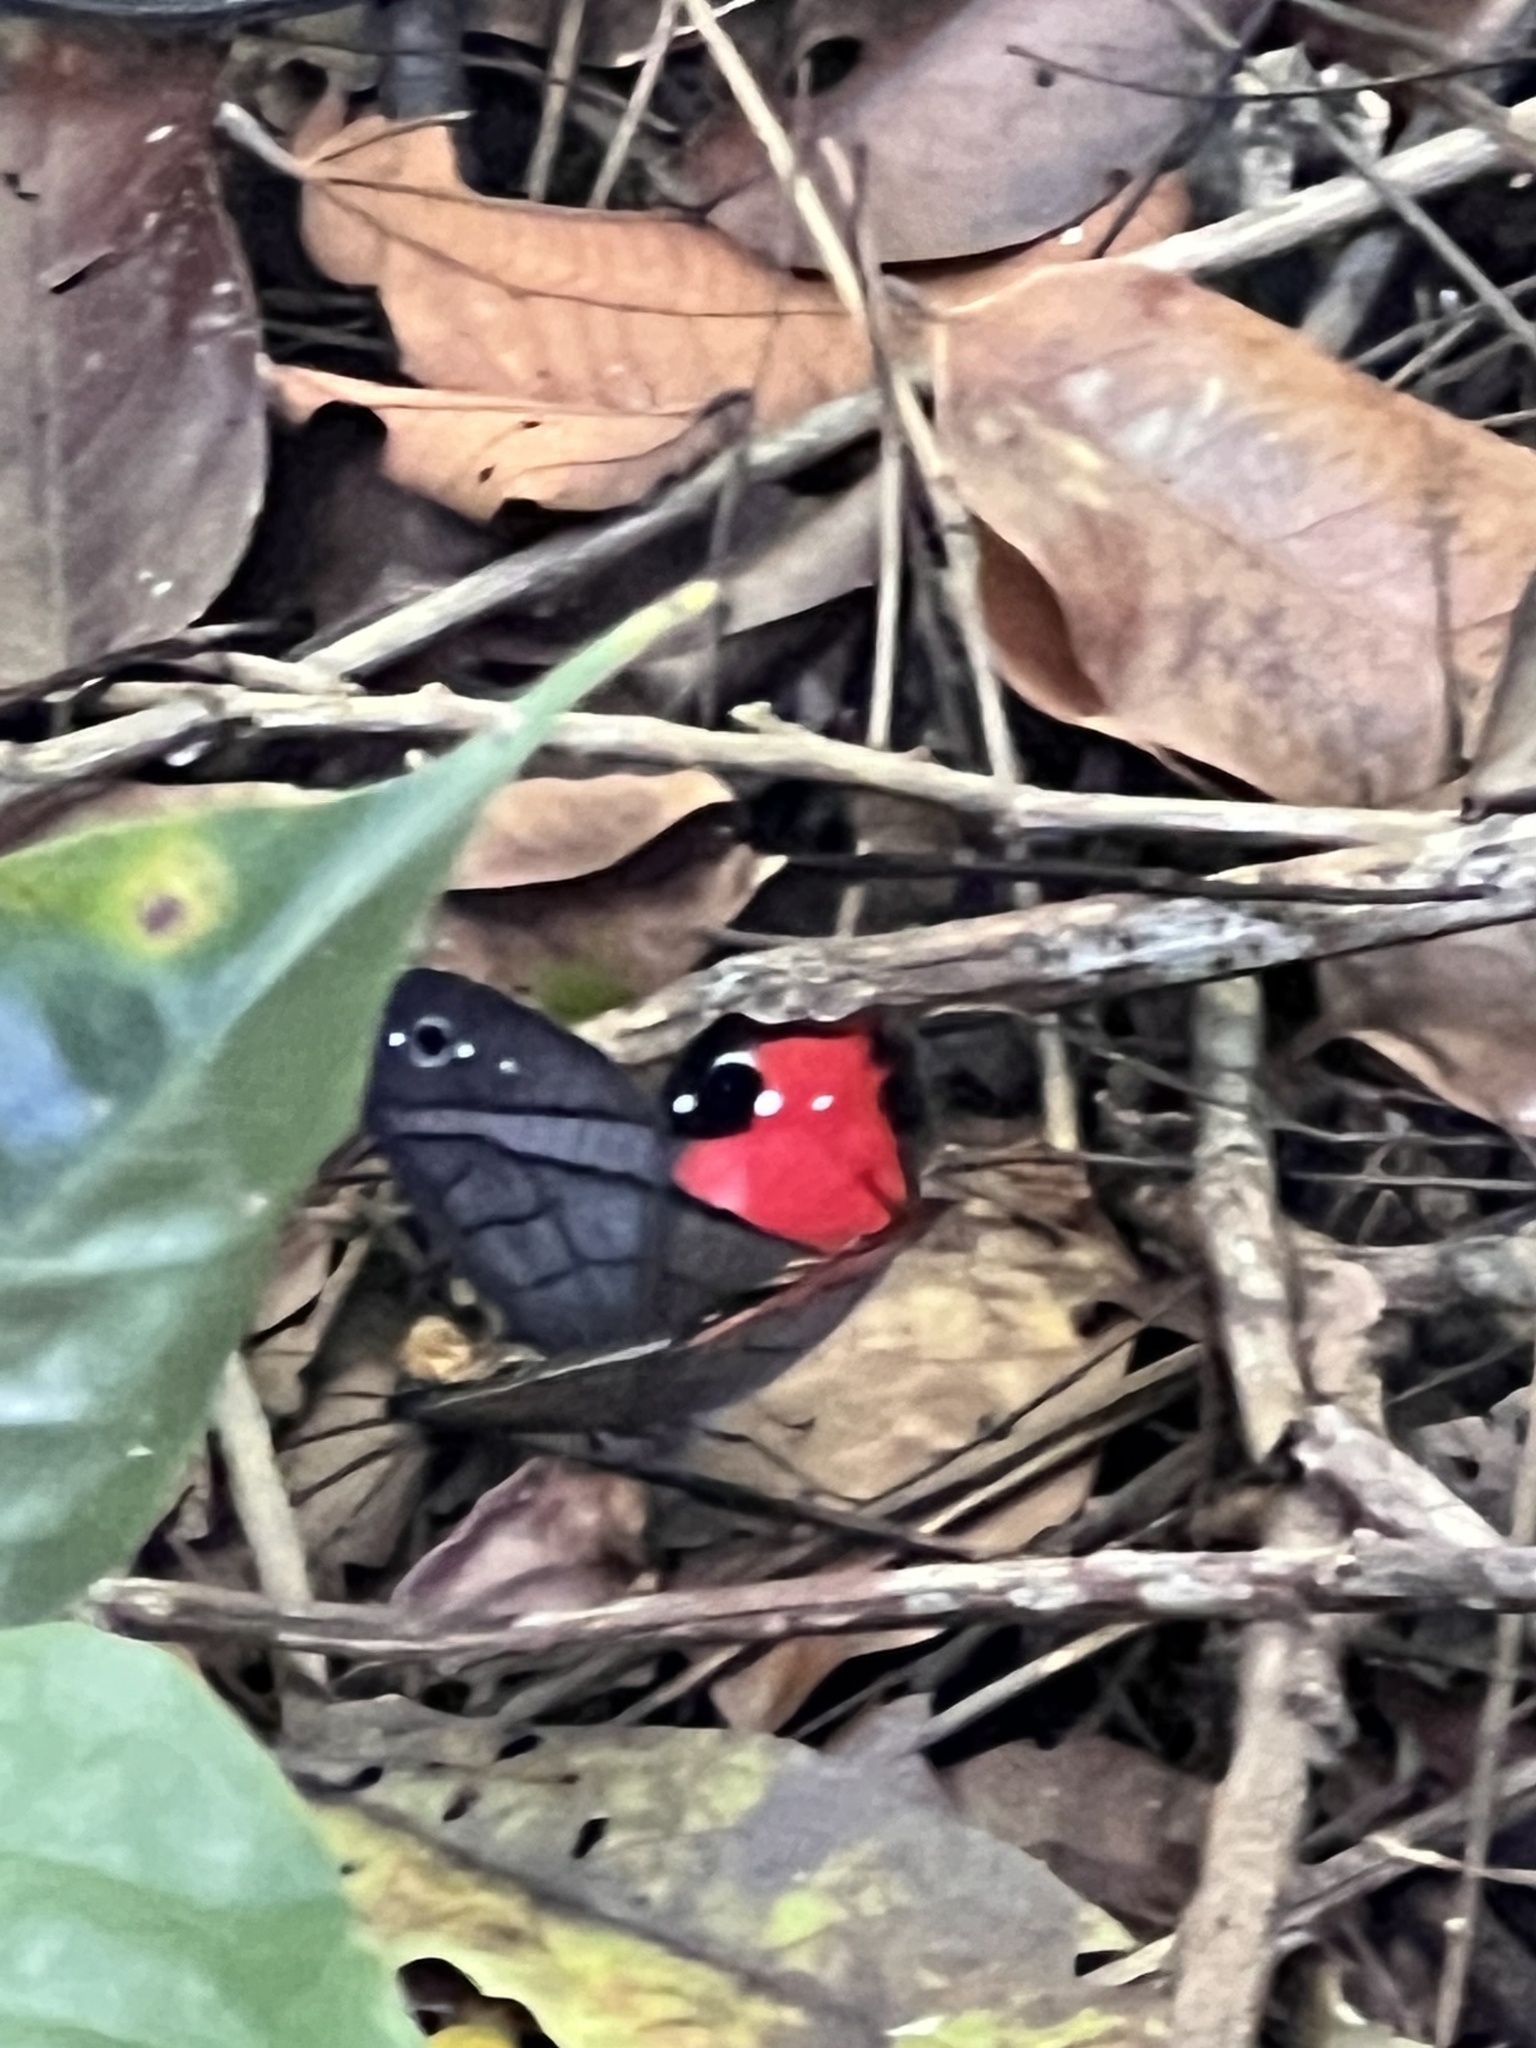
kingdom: Animalia
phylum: Arthropoda
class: Insecta
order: Lepidoptera
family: Nymphalidae
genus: Pierella
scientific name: Pierella helvina
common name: Red-washed satyr
